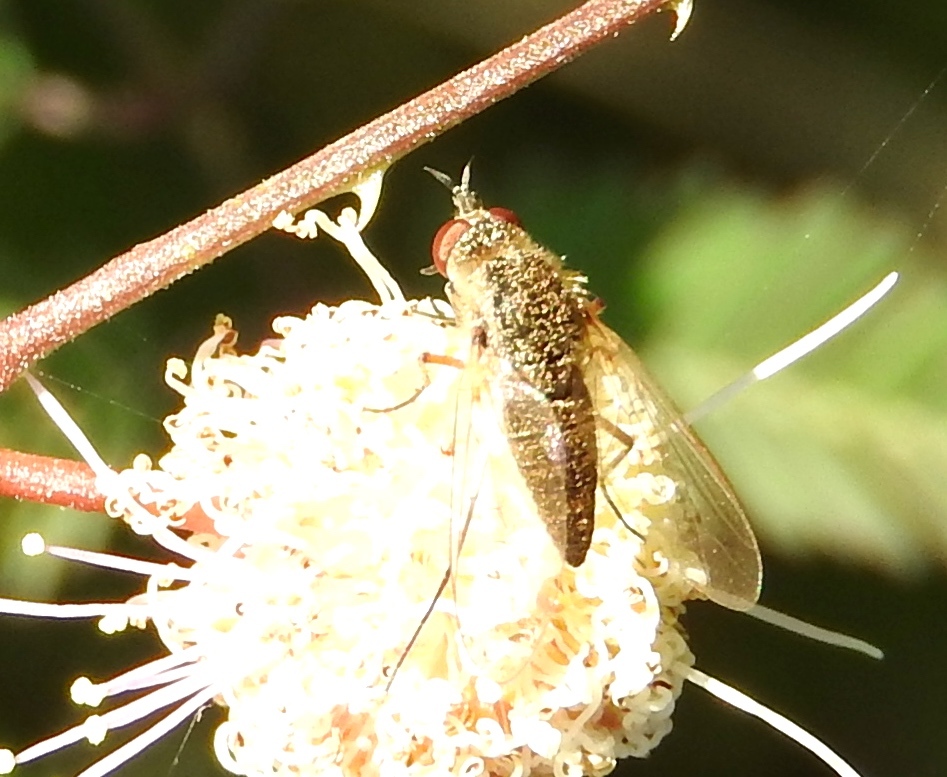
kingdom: Animalia
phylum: Arthropoda
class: Insecta
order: Diptera
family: Bombyliidae
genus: Geron
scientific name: Geron
